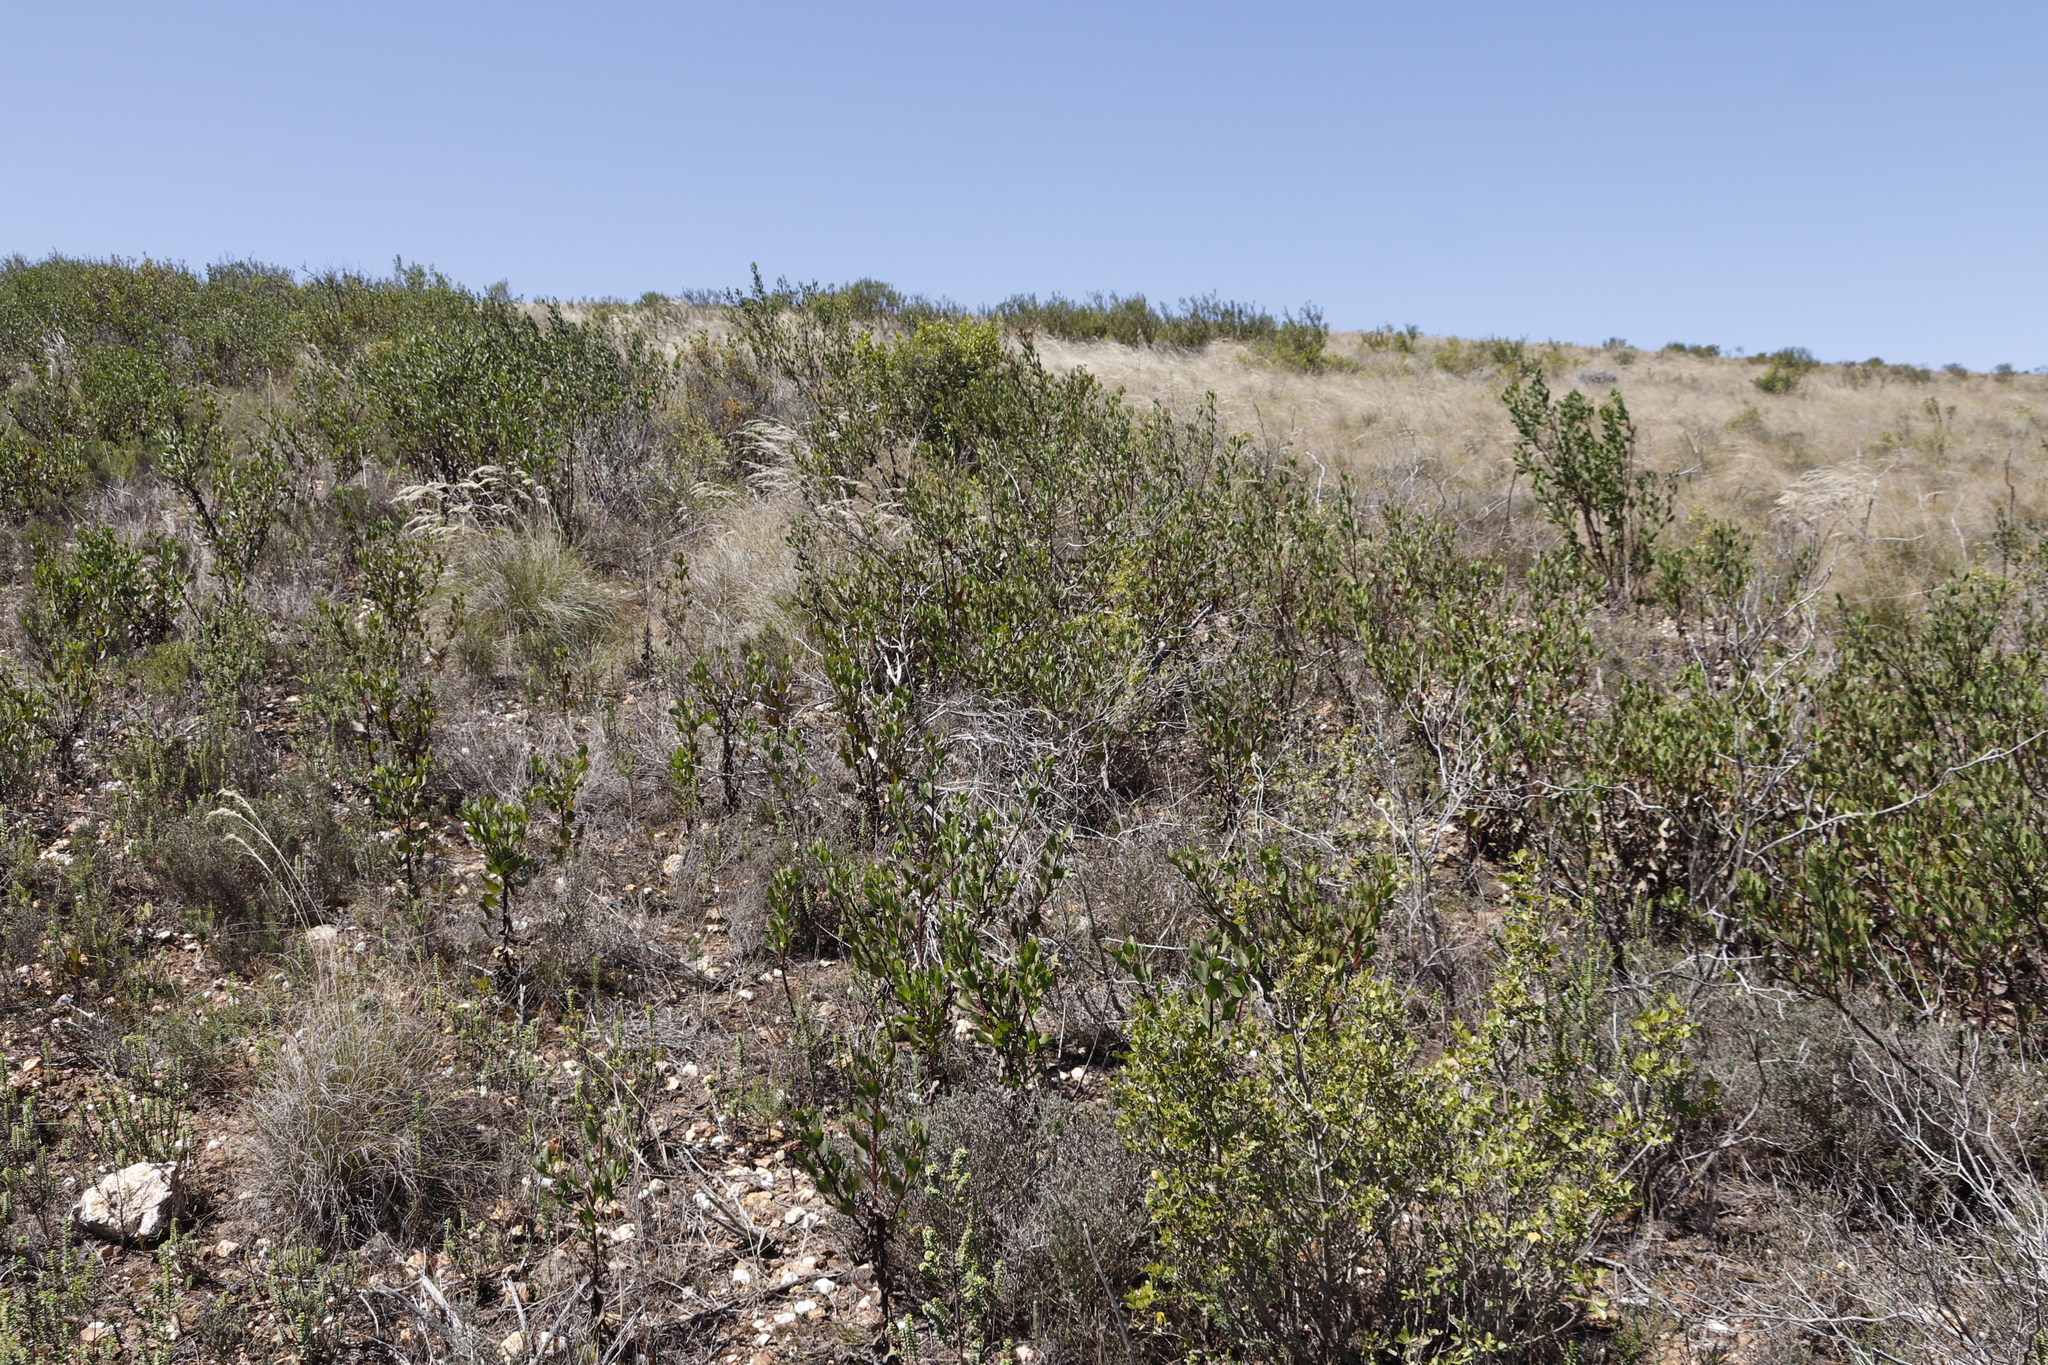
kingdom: Plantae
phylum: Tracheophyta
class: Magnoliopsida
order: Asterales
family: Asteraceae
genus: Osteospermum
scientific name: Osteospermum moniliferum
